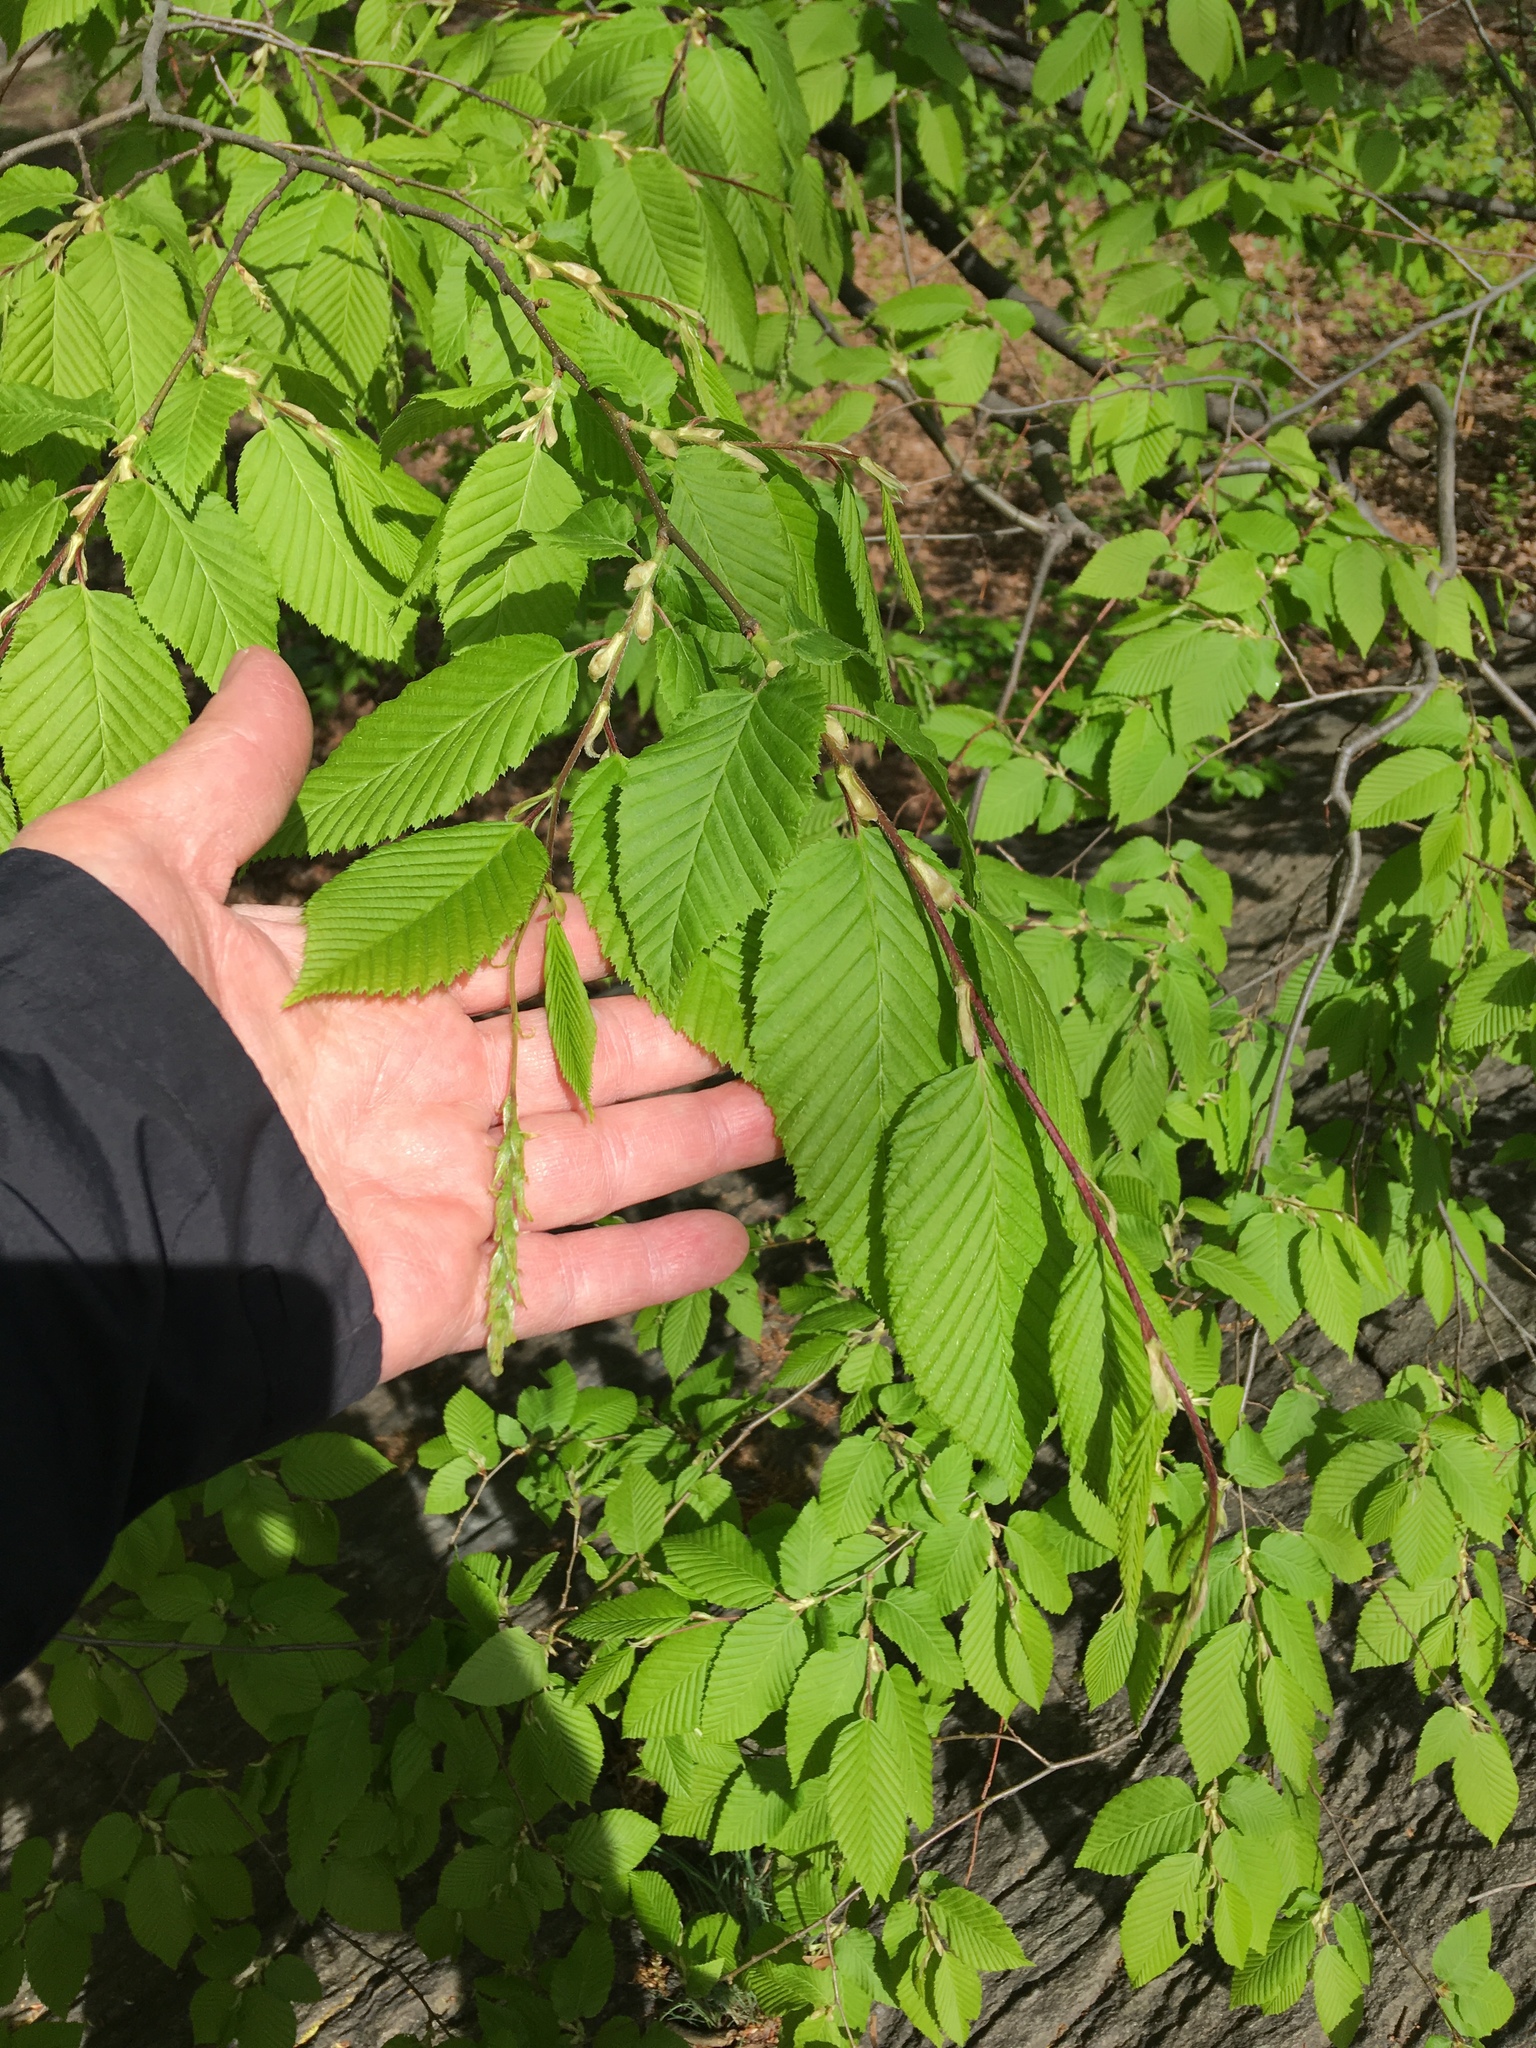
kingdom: Plantae
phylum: Tracheophyta
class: Magnoliopsida
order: Fagales
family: Betulaceae
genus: Carpinus
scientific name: Carpinus caroliniana
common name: American hornbeam
